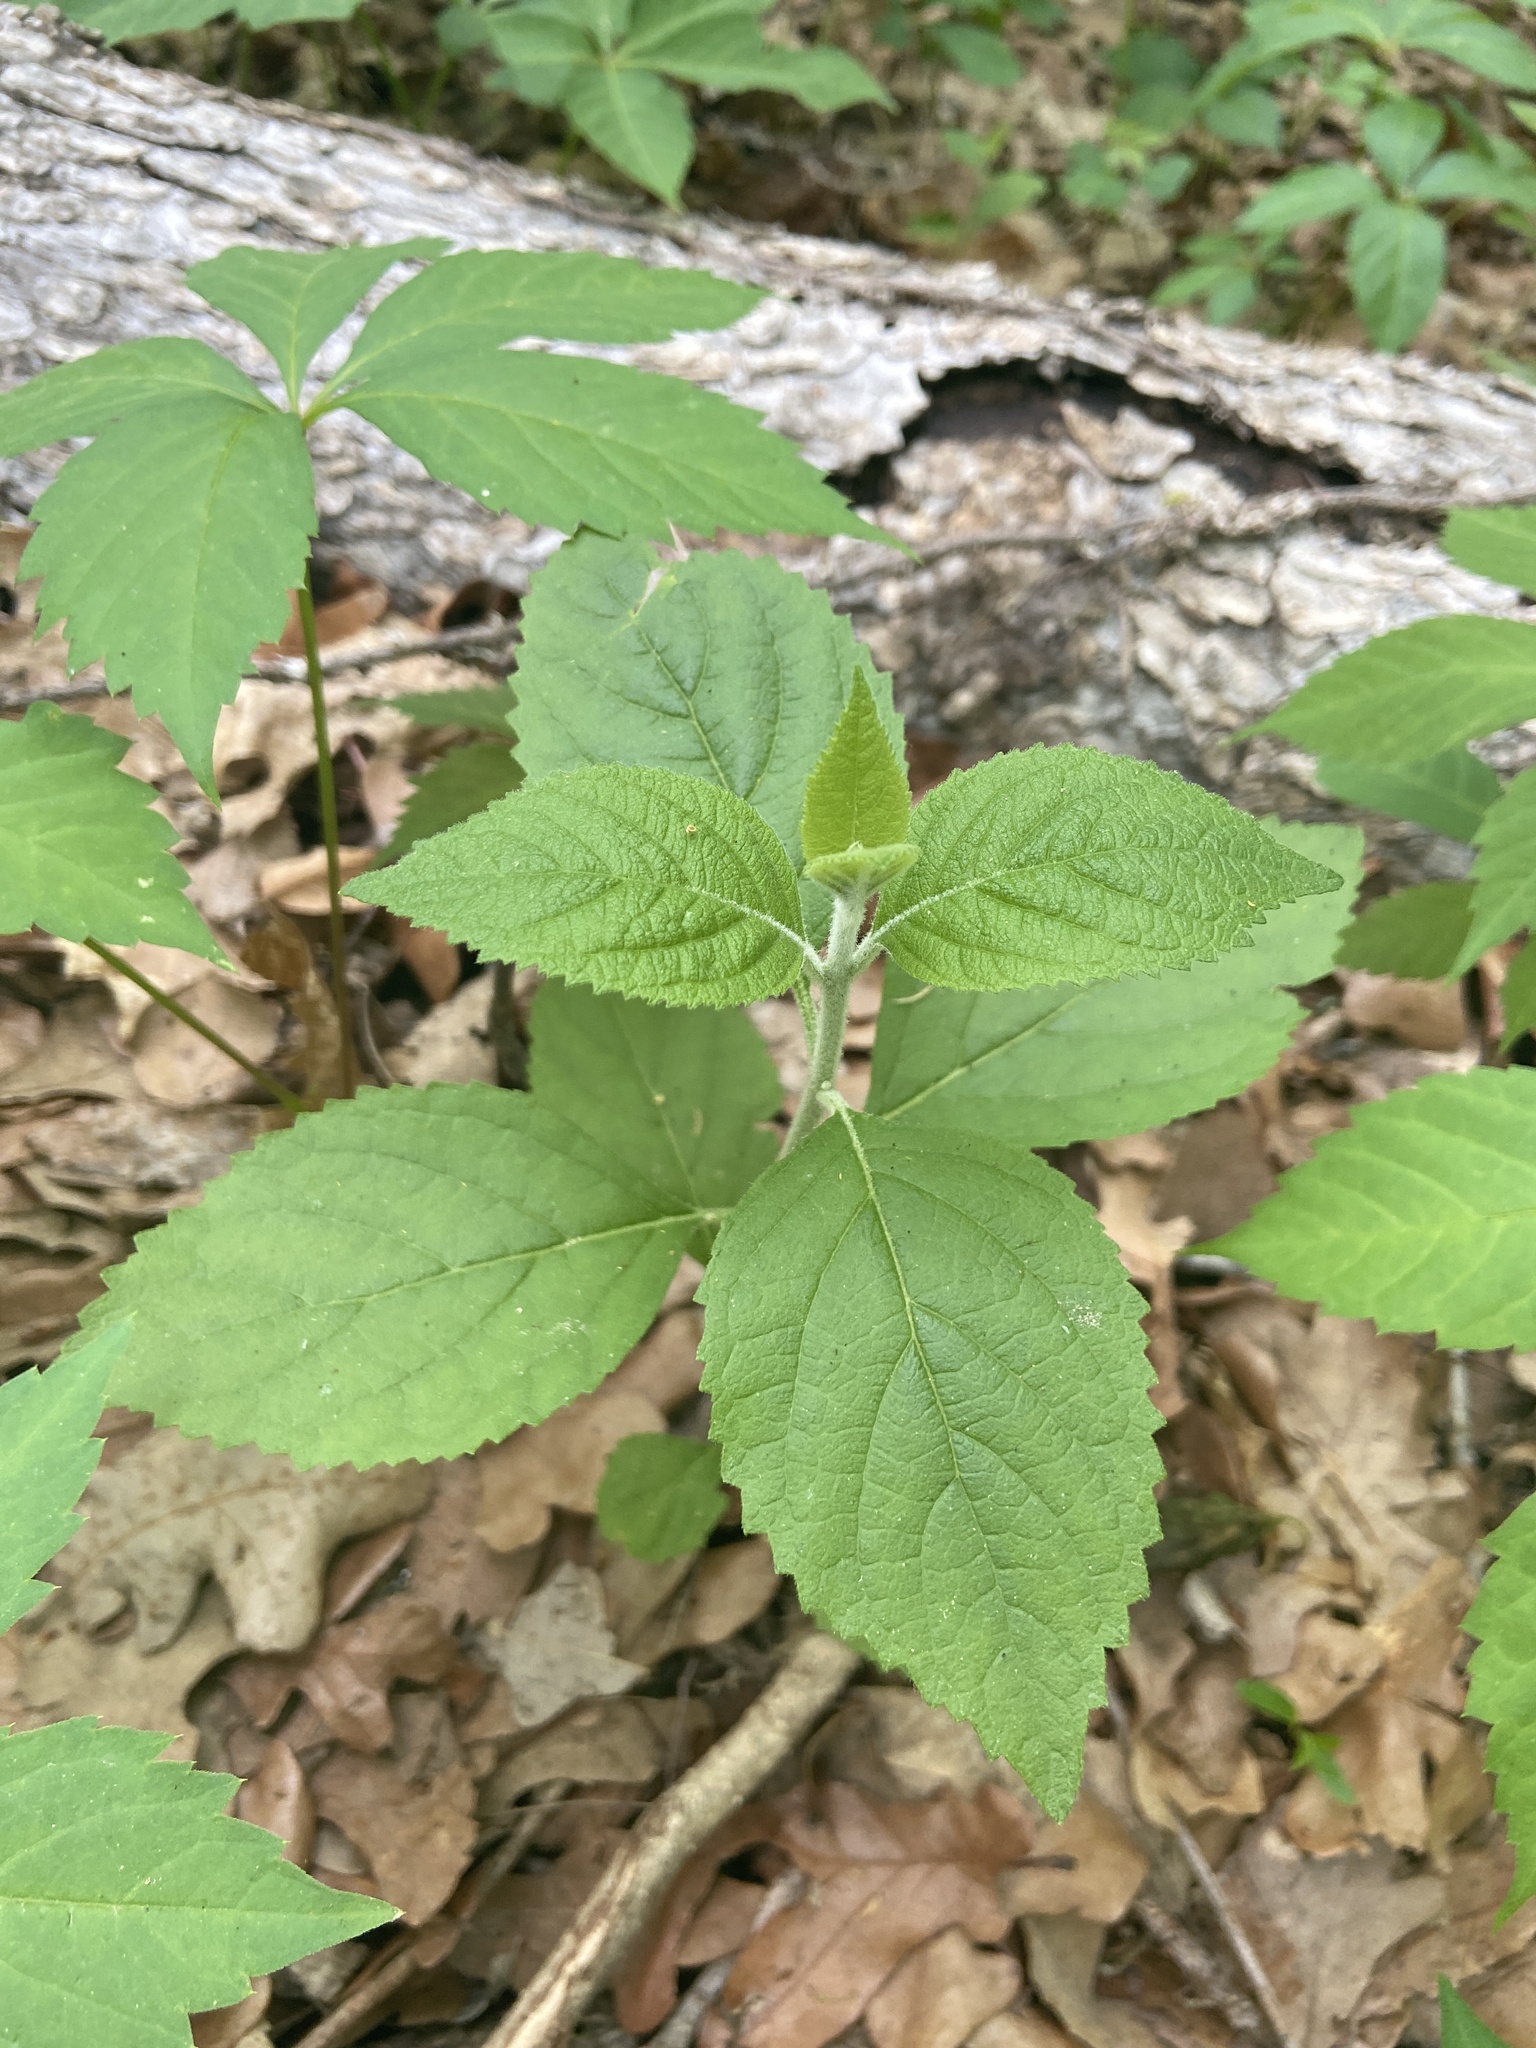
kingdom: Plantae
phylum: Tracheophyta
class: Magnoliopsida
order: Lamiales
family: Lamiaceae
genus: Callicarpa
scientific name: Callicarpa americana
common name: American beautyberry
